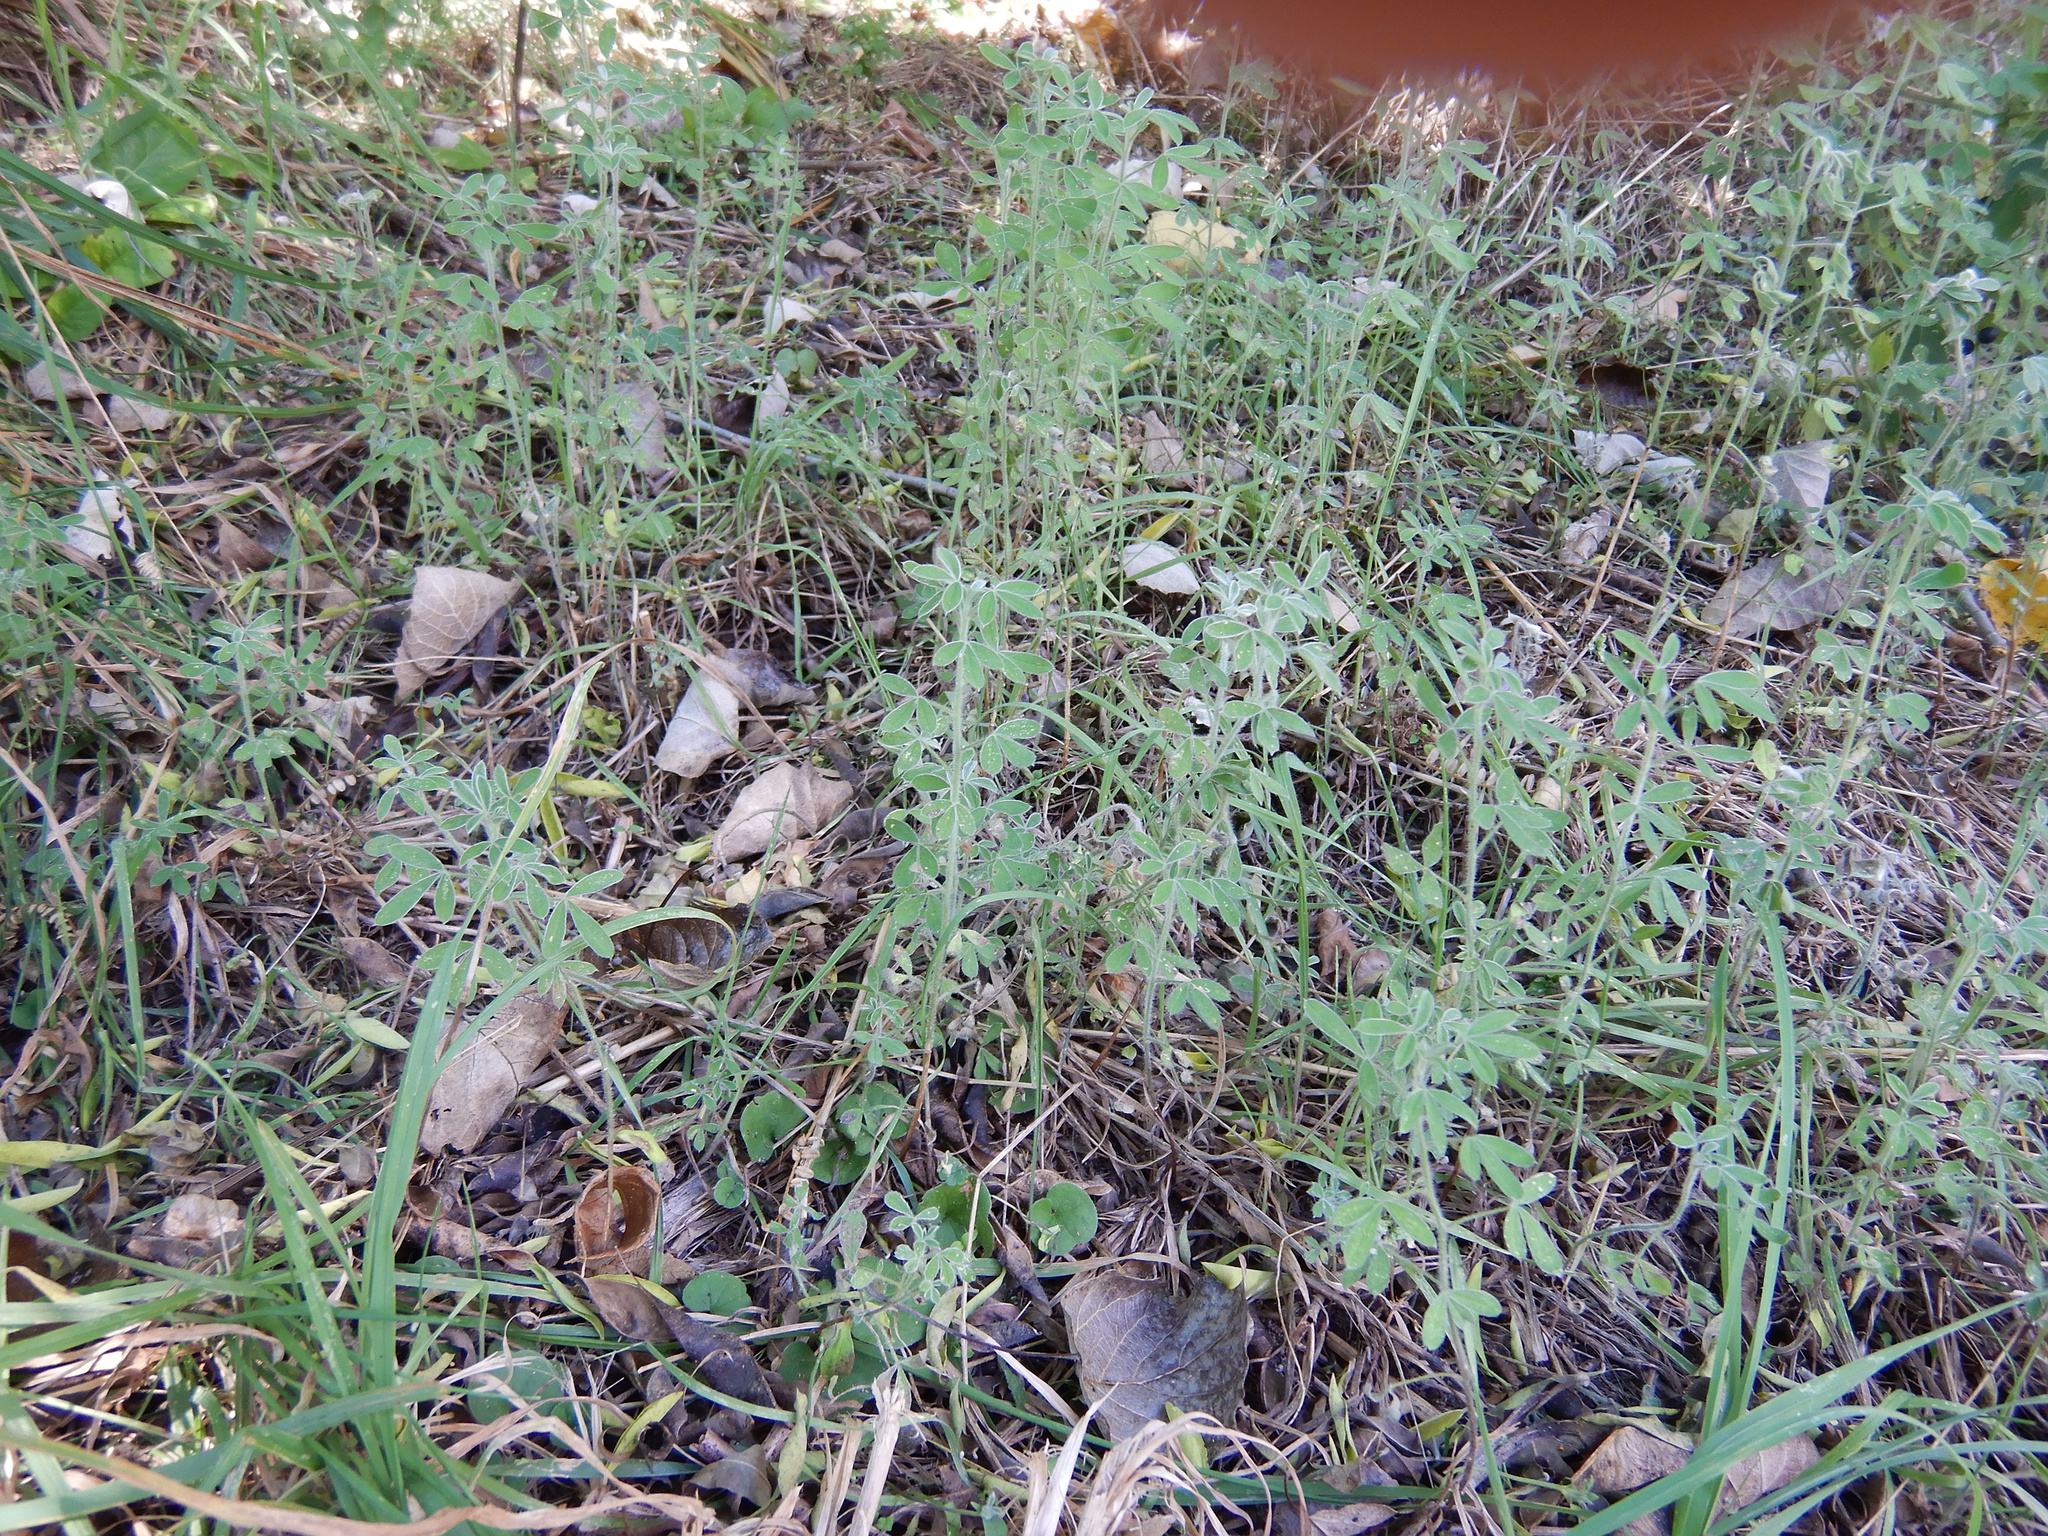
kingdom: Plantae
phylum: Tracheophyta
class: Magnoliopsida
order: Fabales
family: Fabaceae
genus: Chamaecytisus
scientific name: Chamaecytisus prolifer
